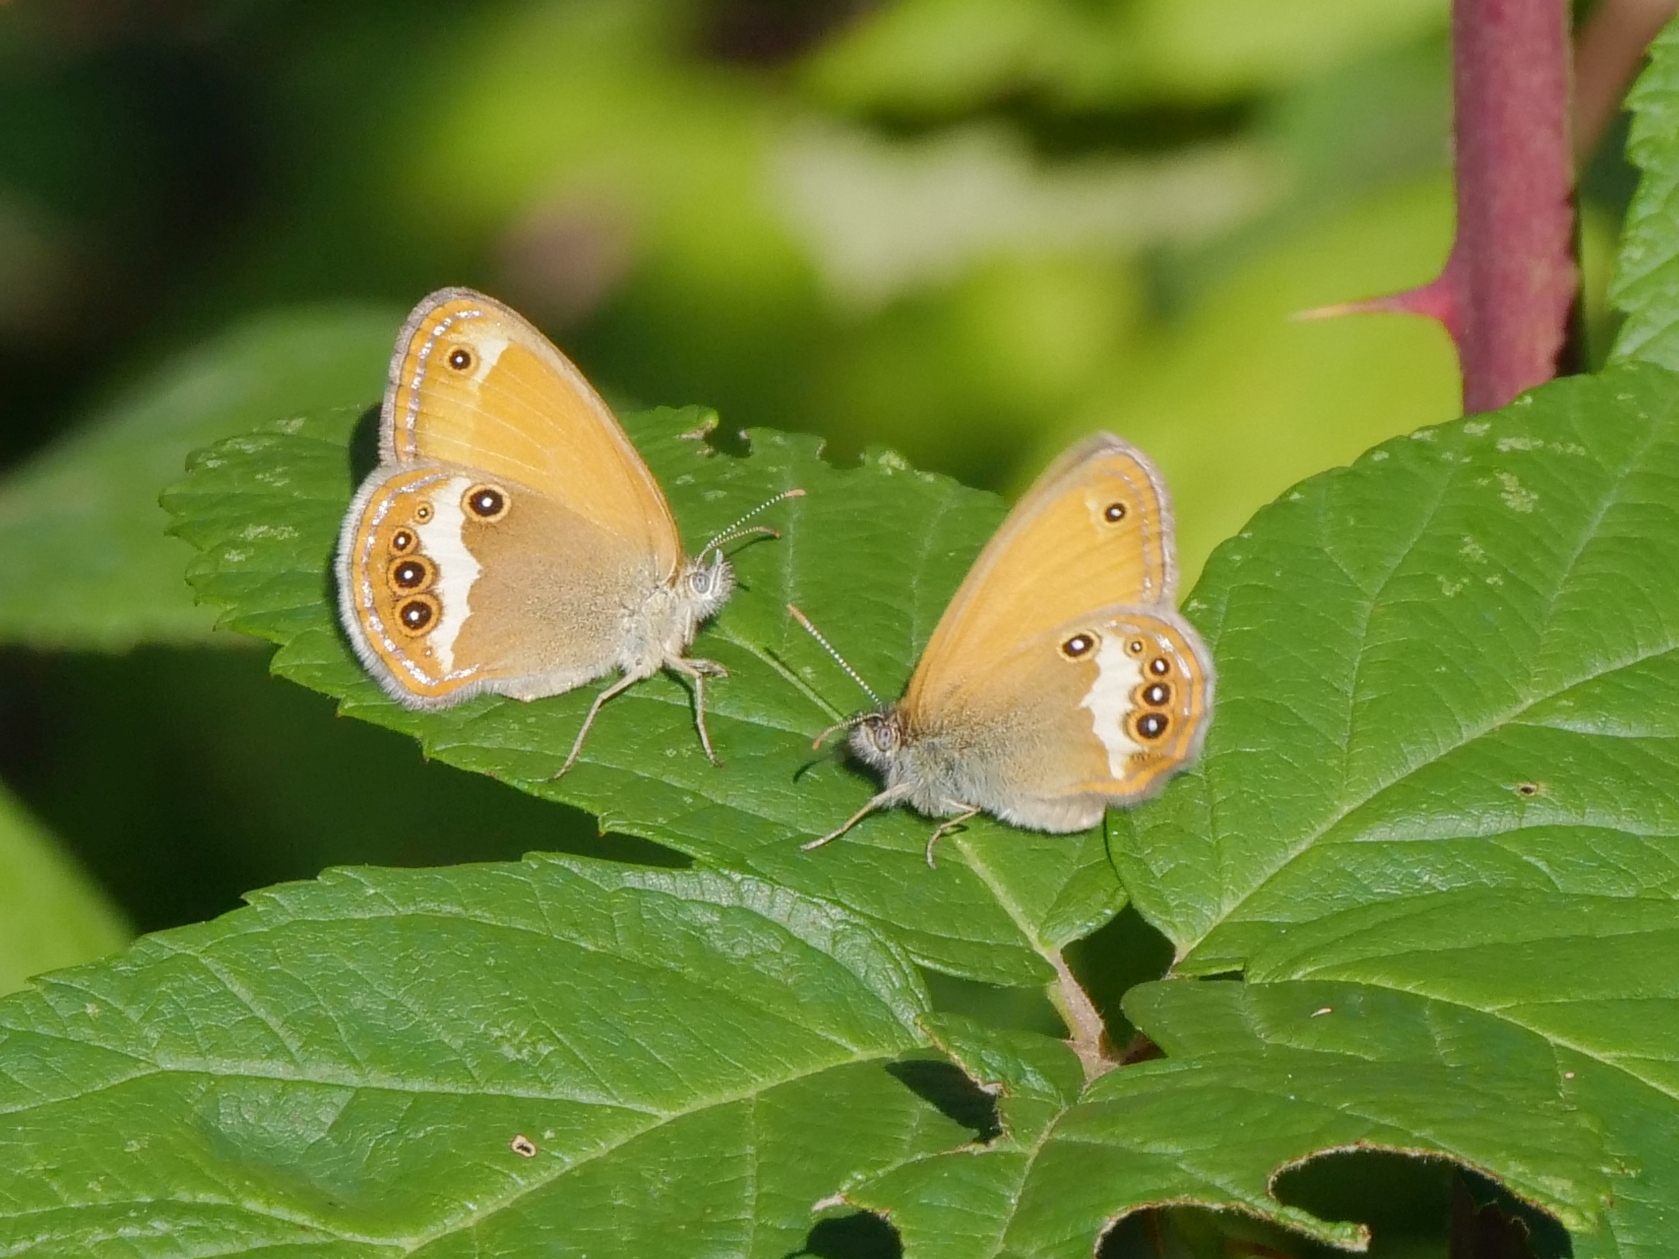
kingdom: Animalia
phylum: Arthropoda
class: Insecta
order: Lepidoptera
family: Nymphalidae
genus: Coenonympha
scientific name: Coenonympha arcania
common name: Pearly heath
